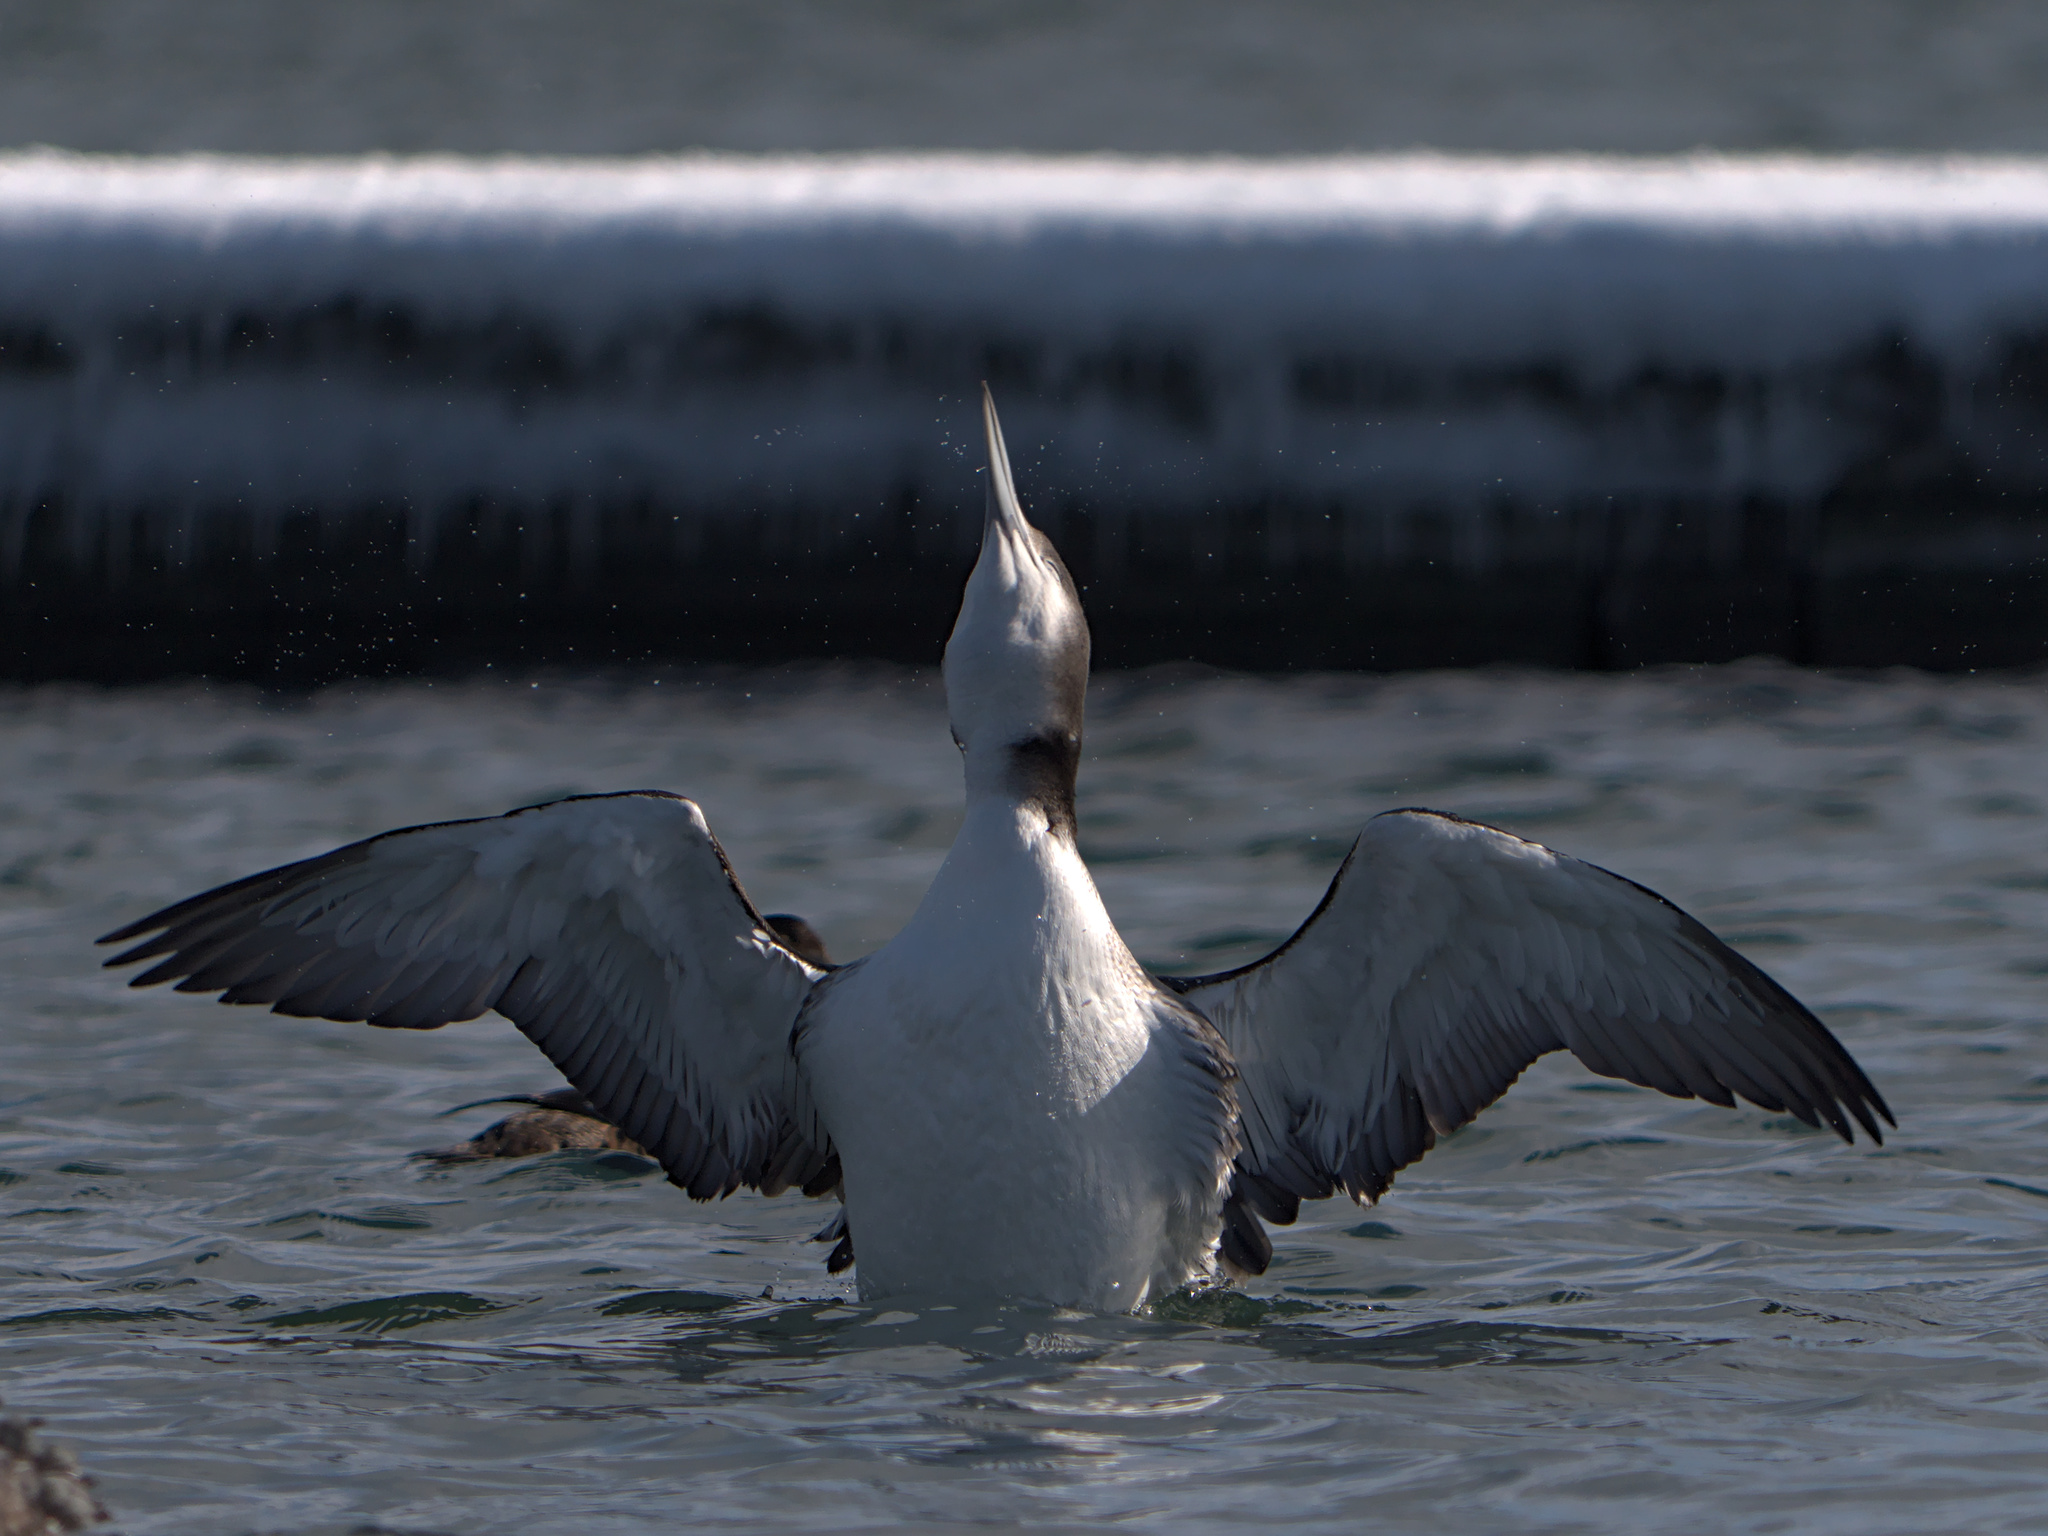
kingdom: Animalia
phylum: Chordata
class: Aves
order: Gaviiformes
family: Gaviidae
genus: Gavia
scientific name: Gavia immer
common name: Common loon
